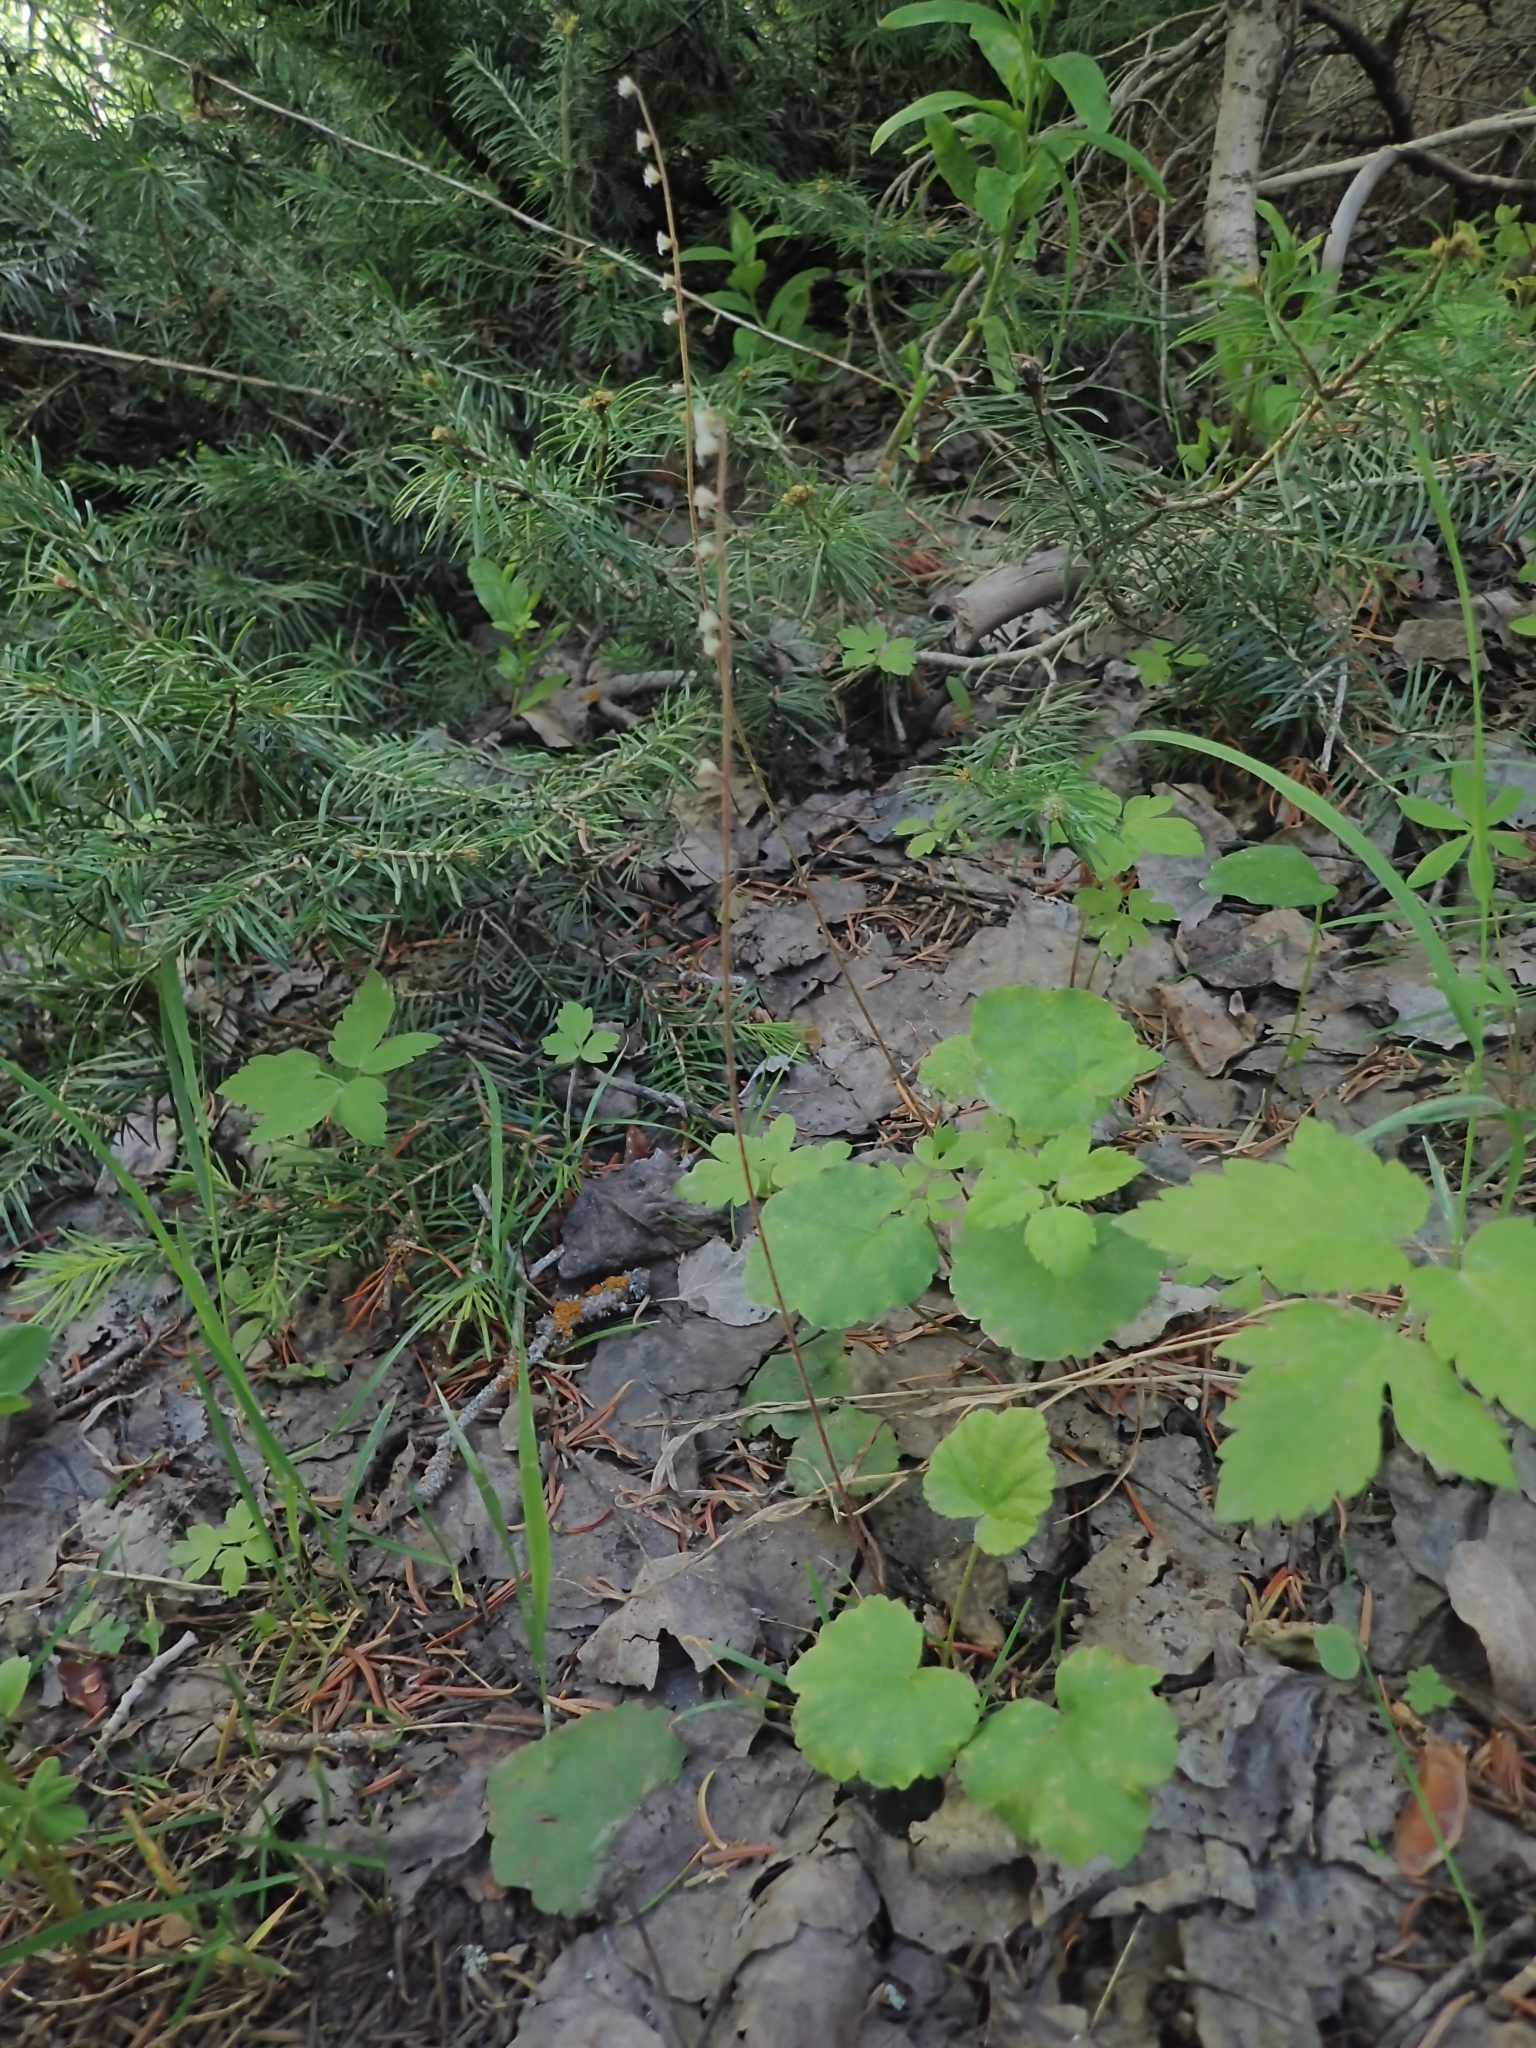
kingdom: Plantae
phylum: Tracheophyta
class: Magnoliopsida
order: Saxifragales
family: Saxifragaceae
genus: Ozomelis
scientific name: Ozomelis stauropetala
